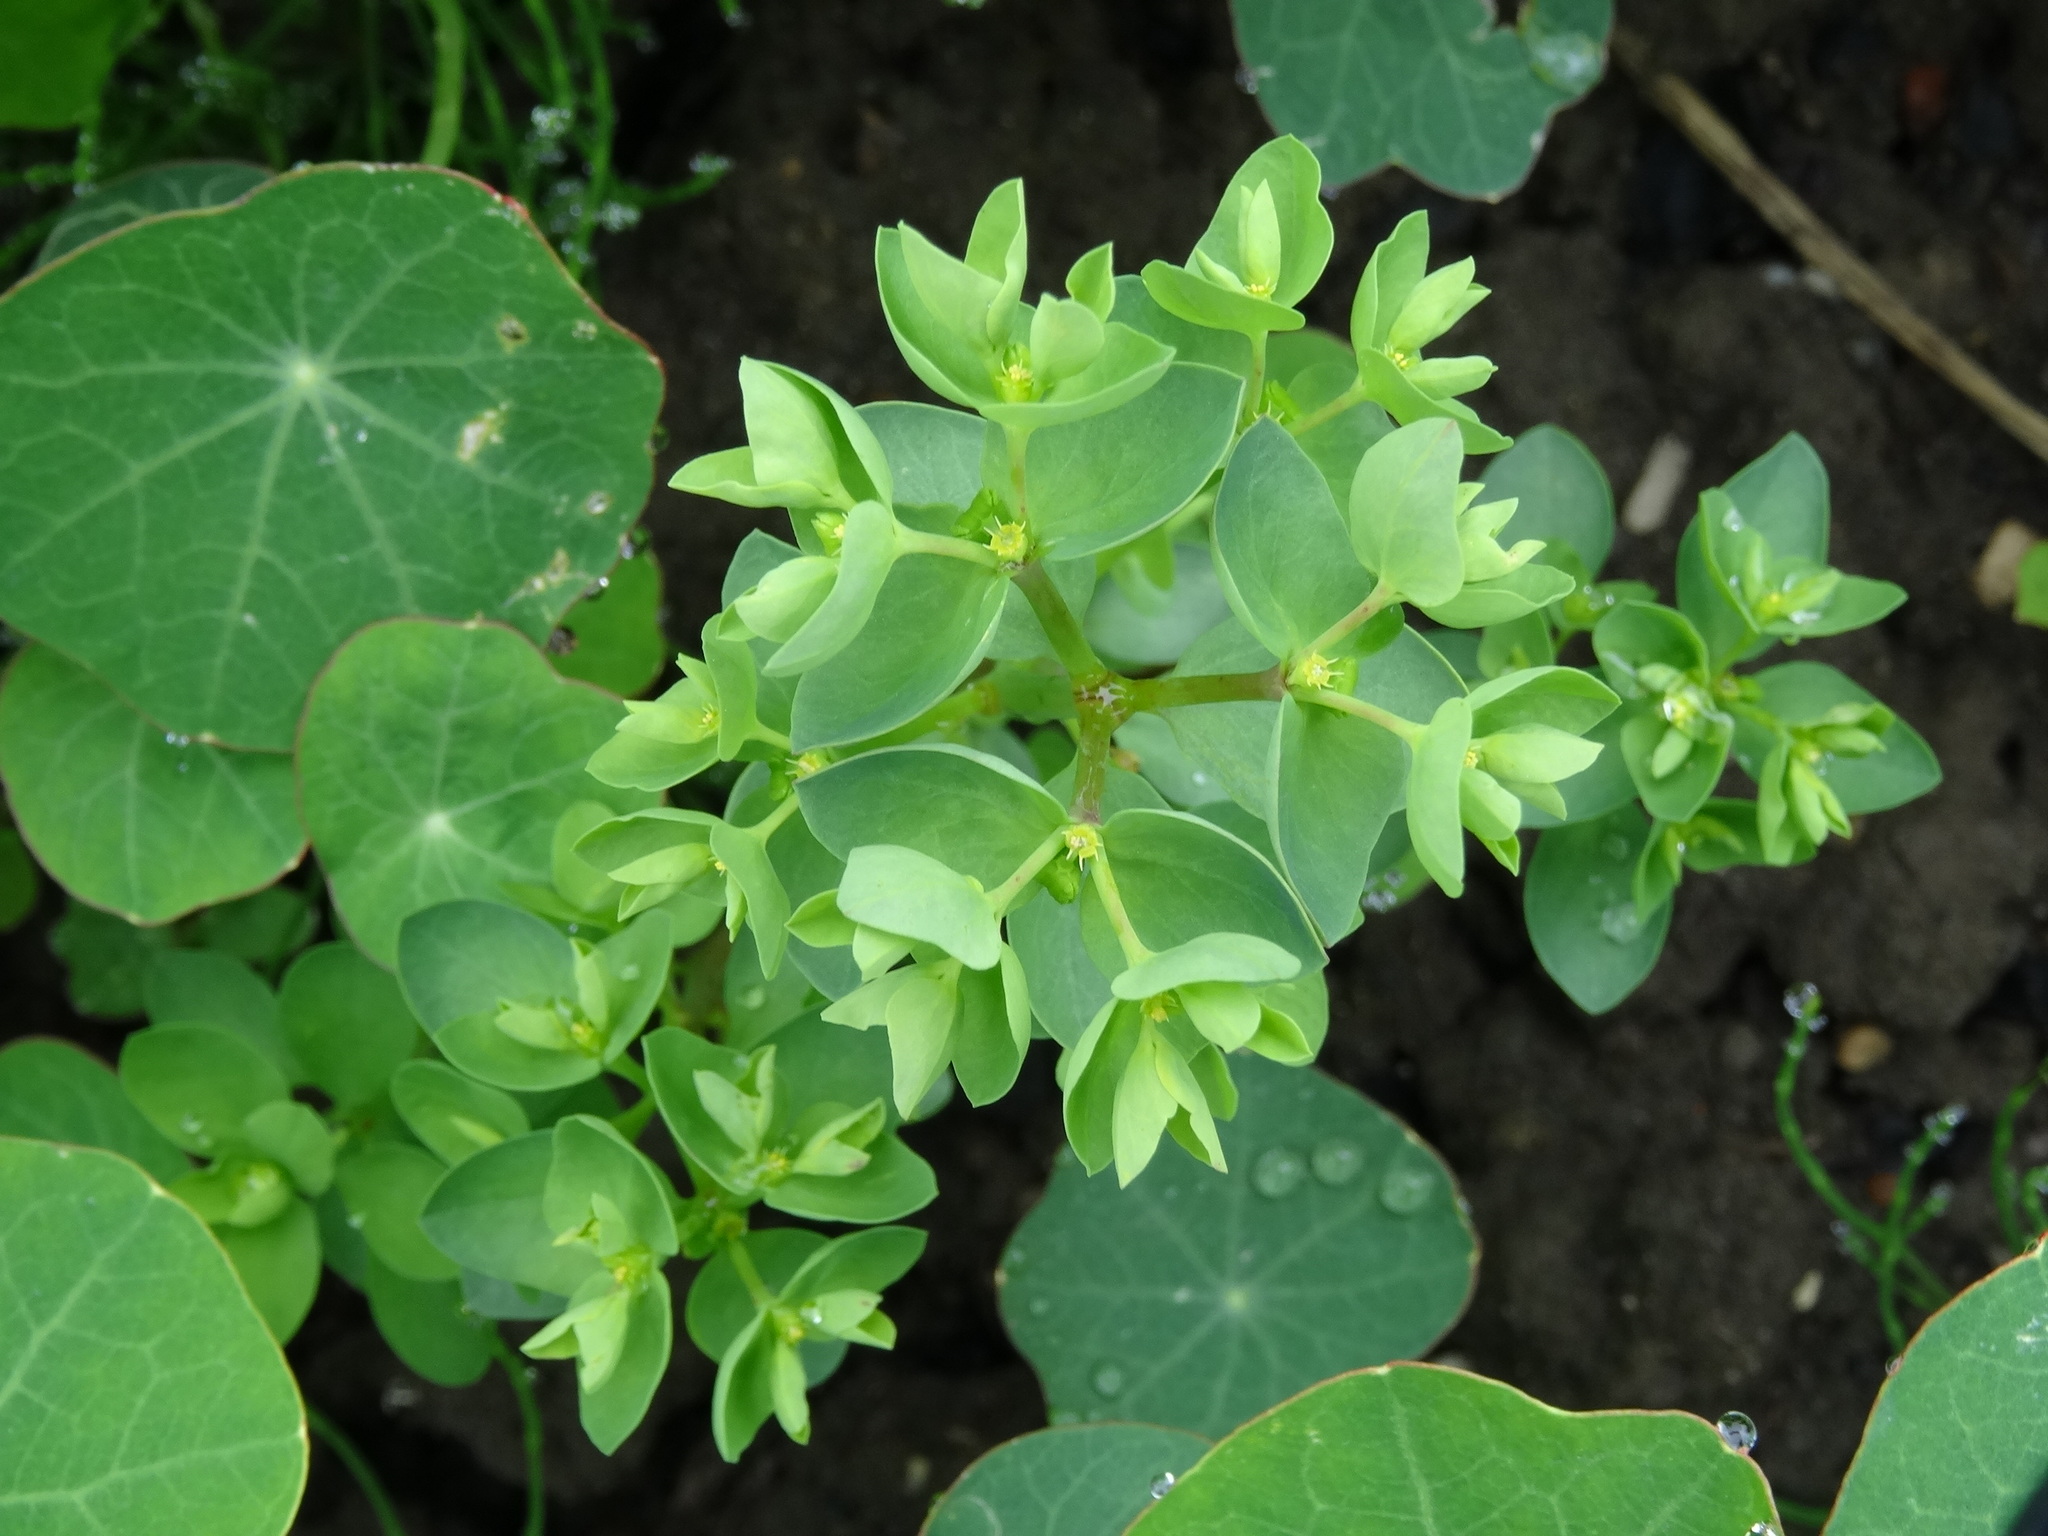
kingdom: Plantae
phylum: Tracheophyta
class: Magnoliopsida
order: Malpighiales
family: Euphorbiaceae
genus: Euphorbia
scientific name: Euphorbia peplus
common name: Petty spurge
